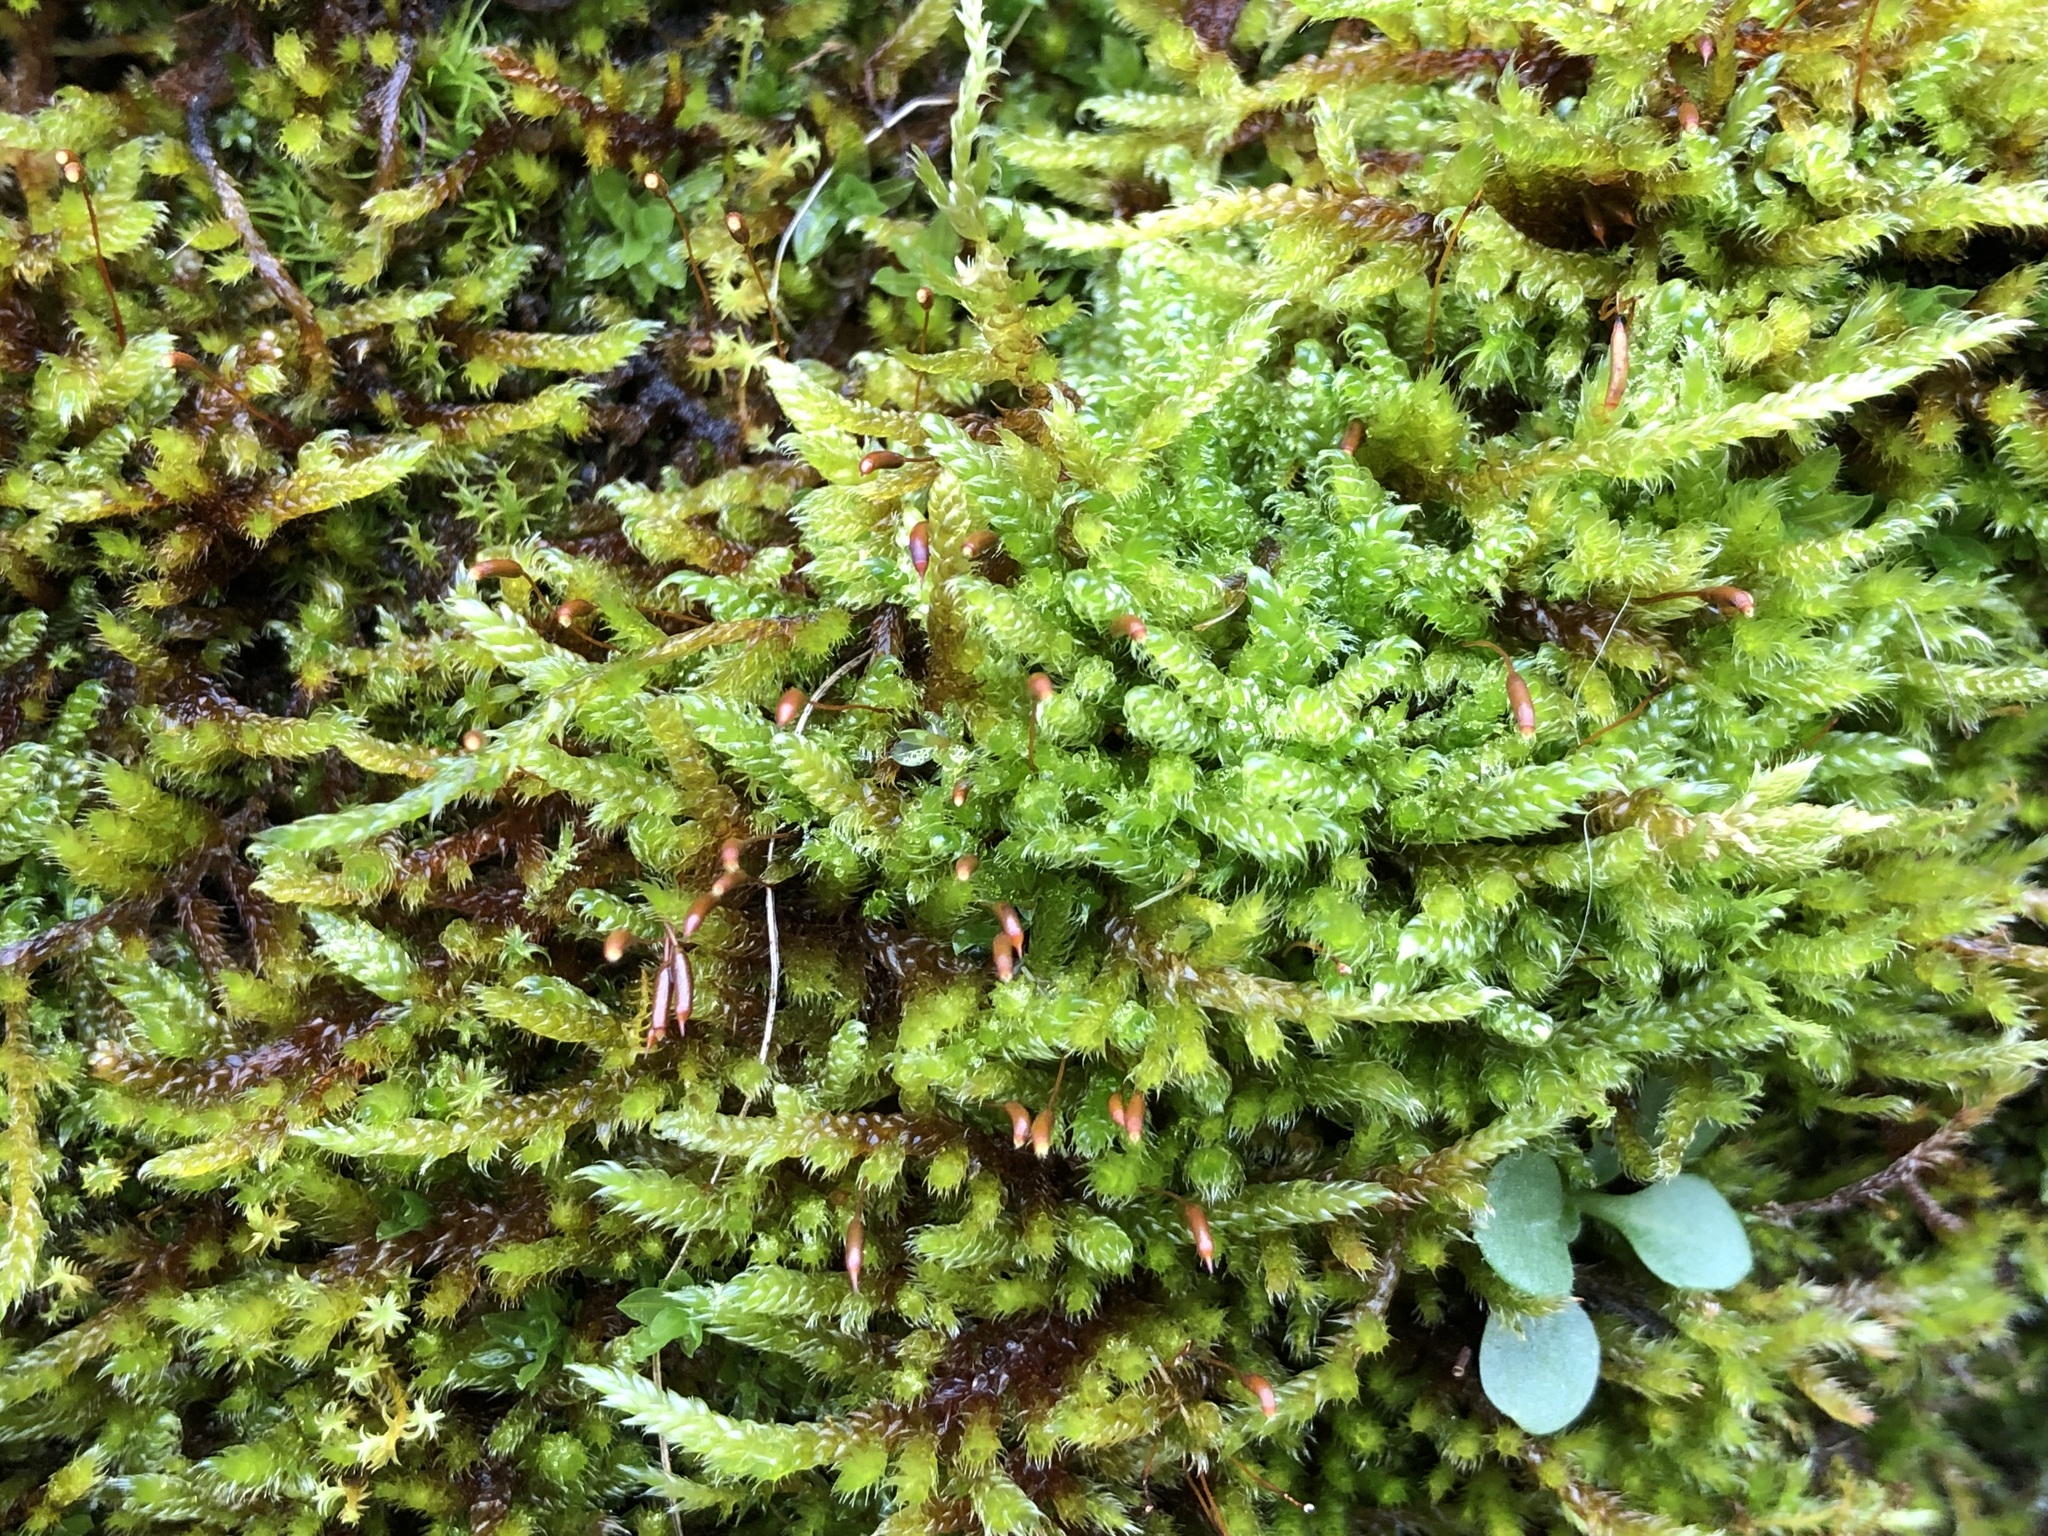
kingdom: Plantae
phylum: Bryophyta
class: Bryopsida
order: Hypnales
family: Hypnaceae
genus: Hypnum
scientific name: Hypnum cupressiforme
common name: Cypress-leaved plait-moss
